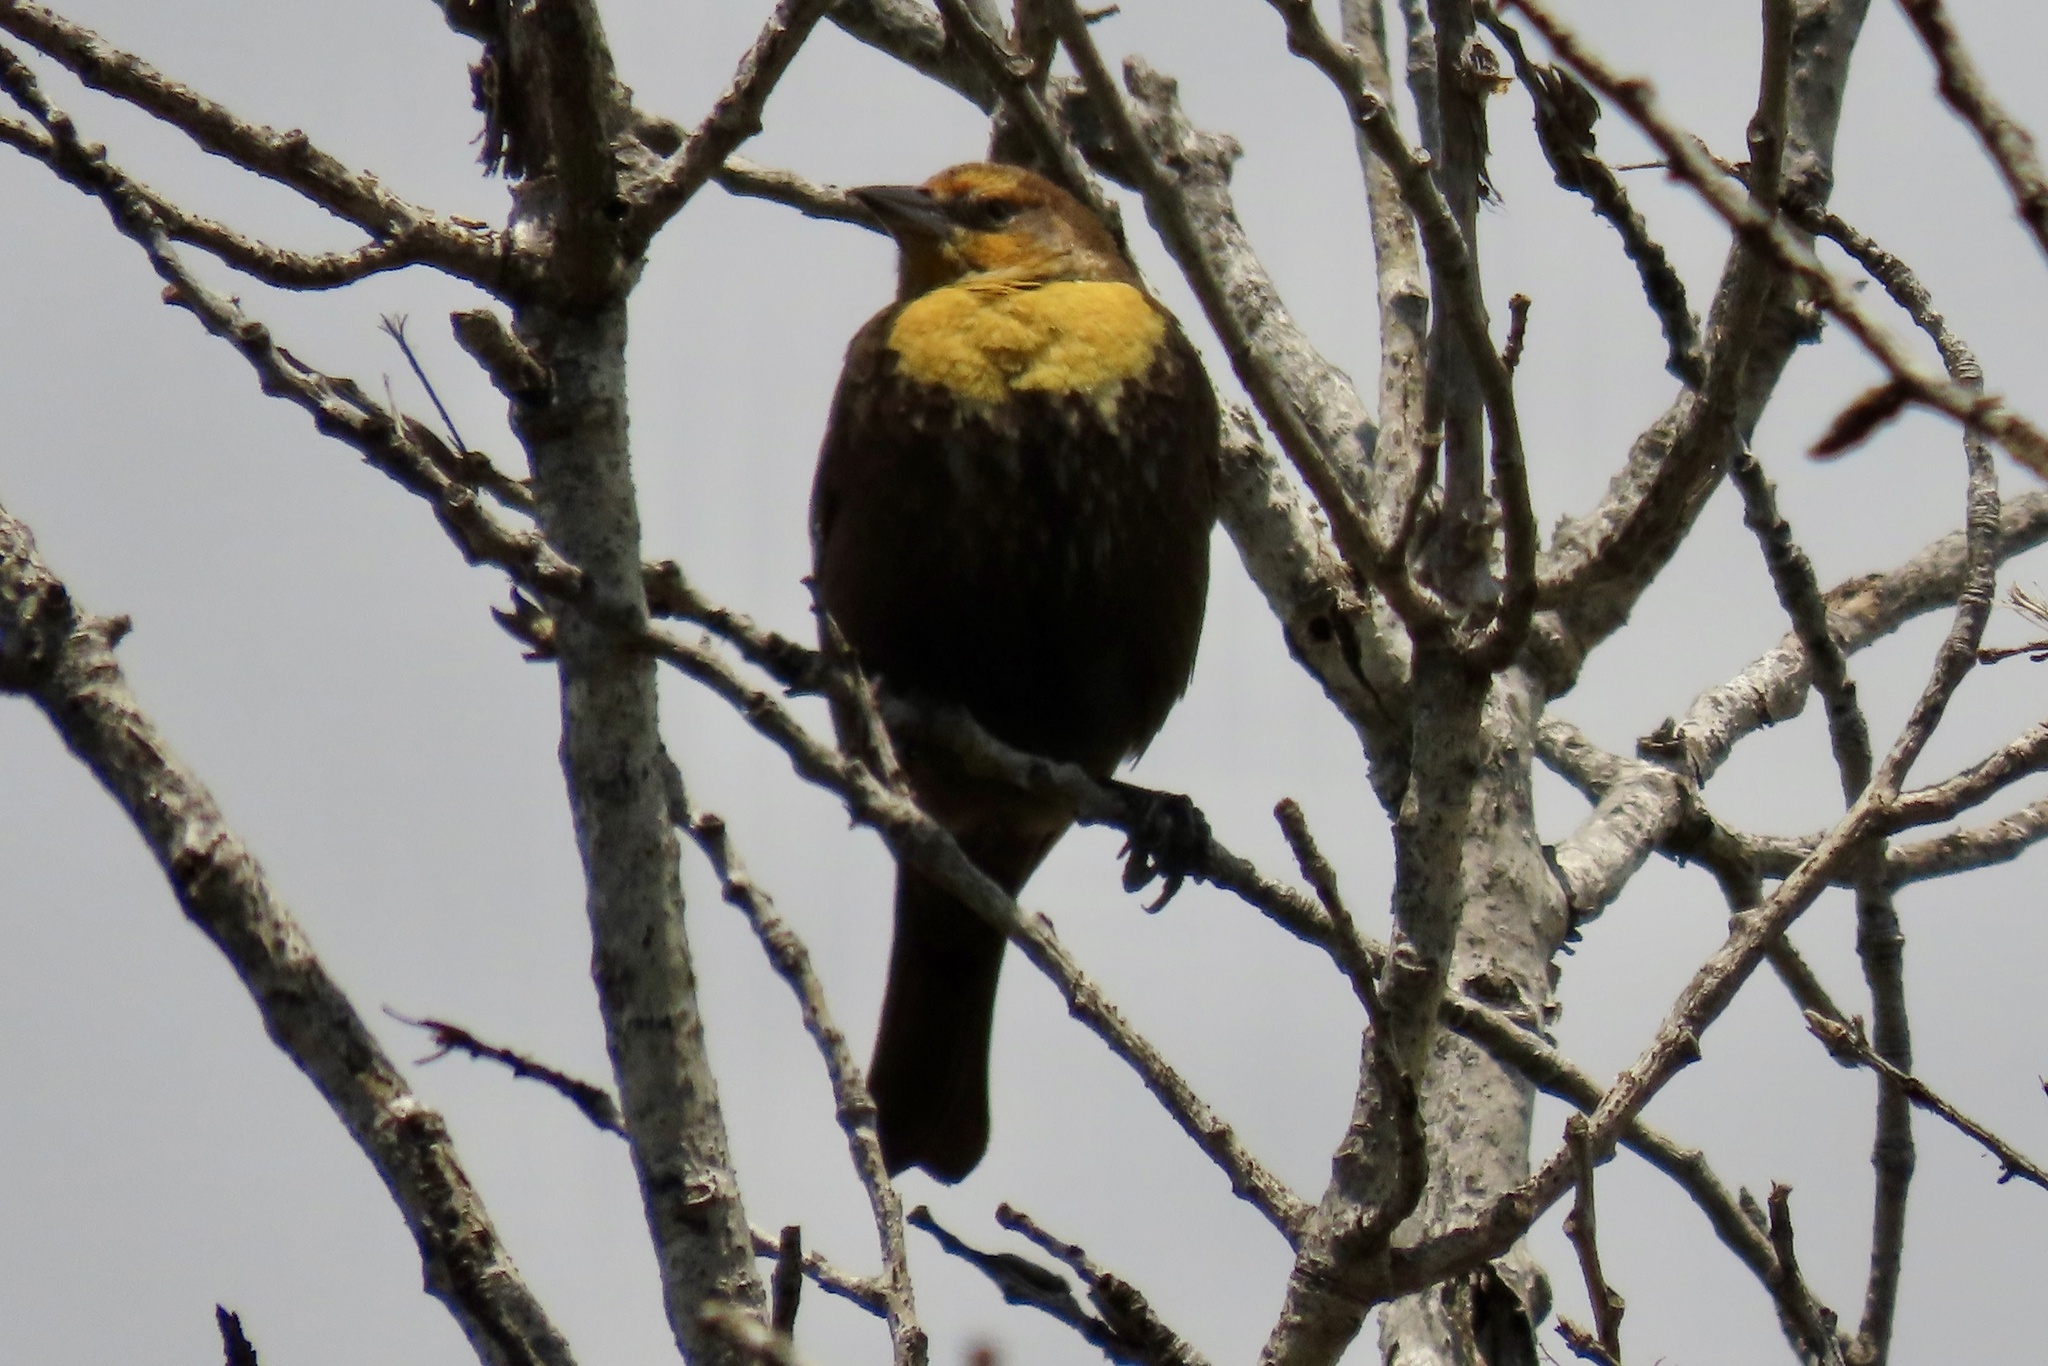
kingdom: Animalia
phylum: Chordata
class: Aves
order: Passeriformes
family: Icteridae
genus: Xanthocephalus
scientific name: Xanthocephalus xanthocephalus
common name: Yellow-headed blackbird
